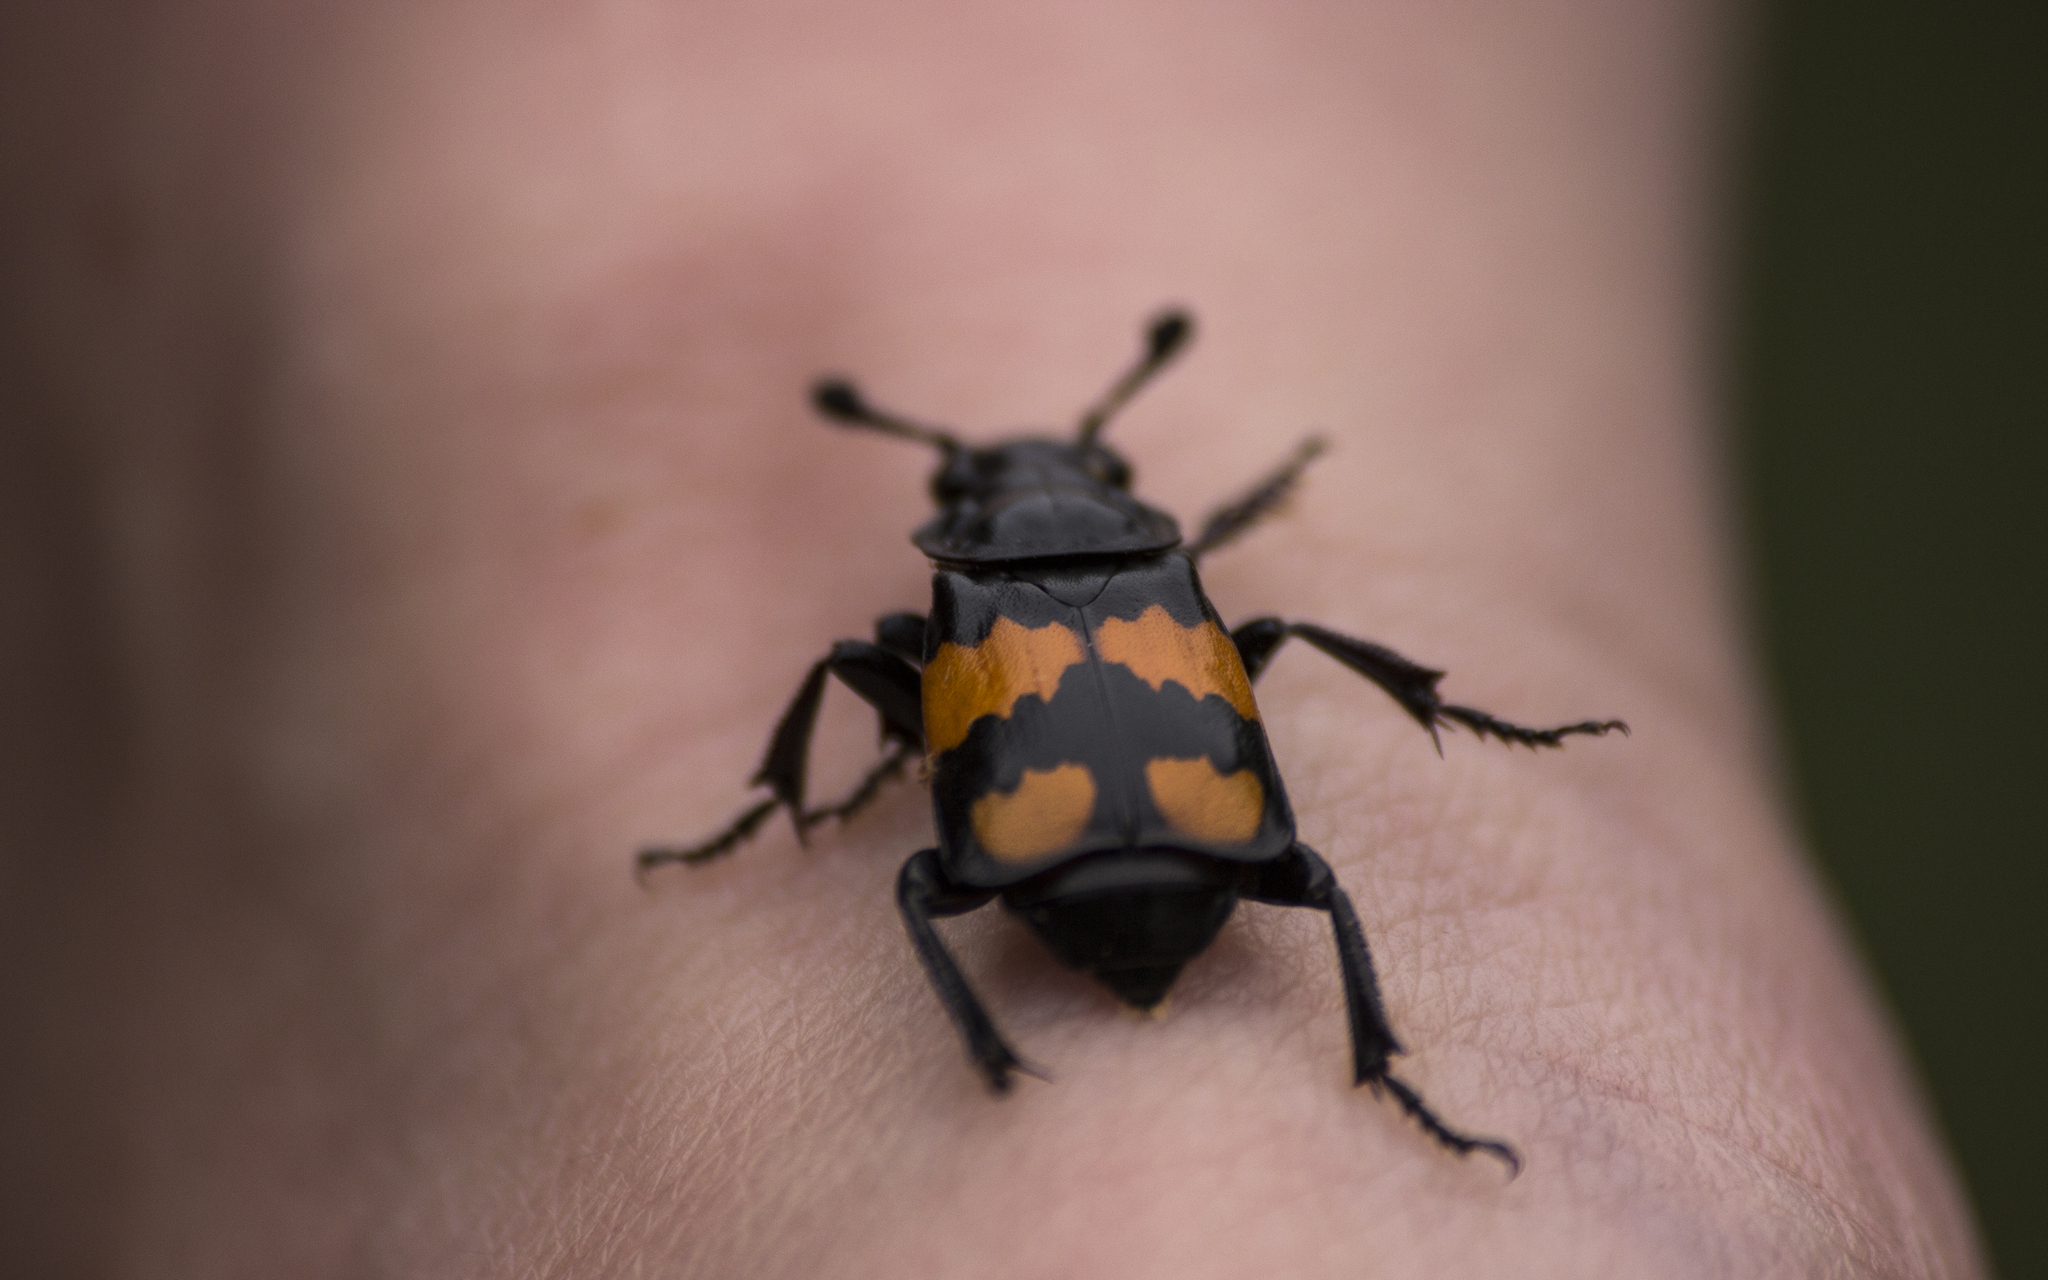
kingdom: Animalia
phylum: Arthropoda
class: Insecta
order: Coleoptera
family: Staphylinidae
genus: Nicrophorus
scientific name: Nicrophorus vespilloides
